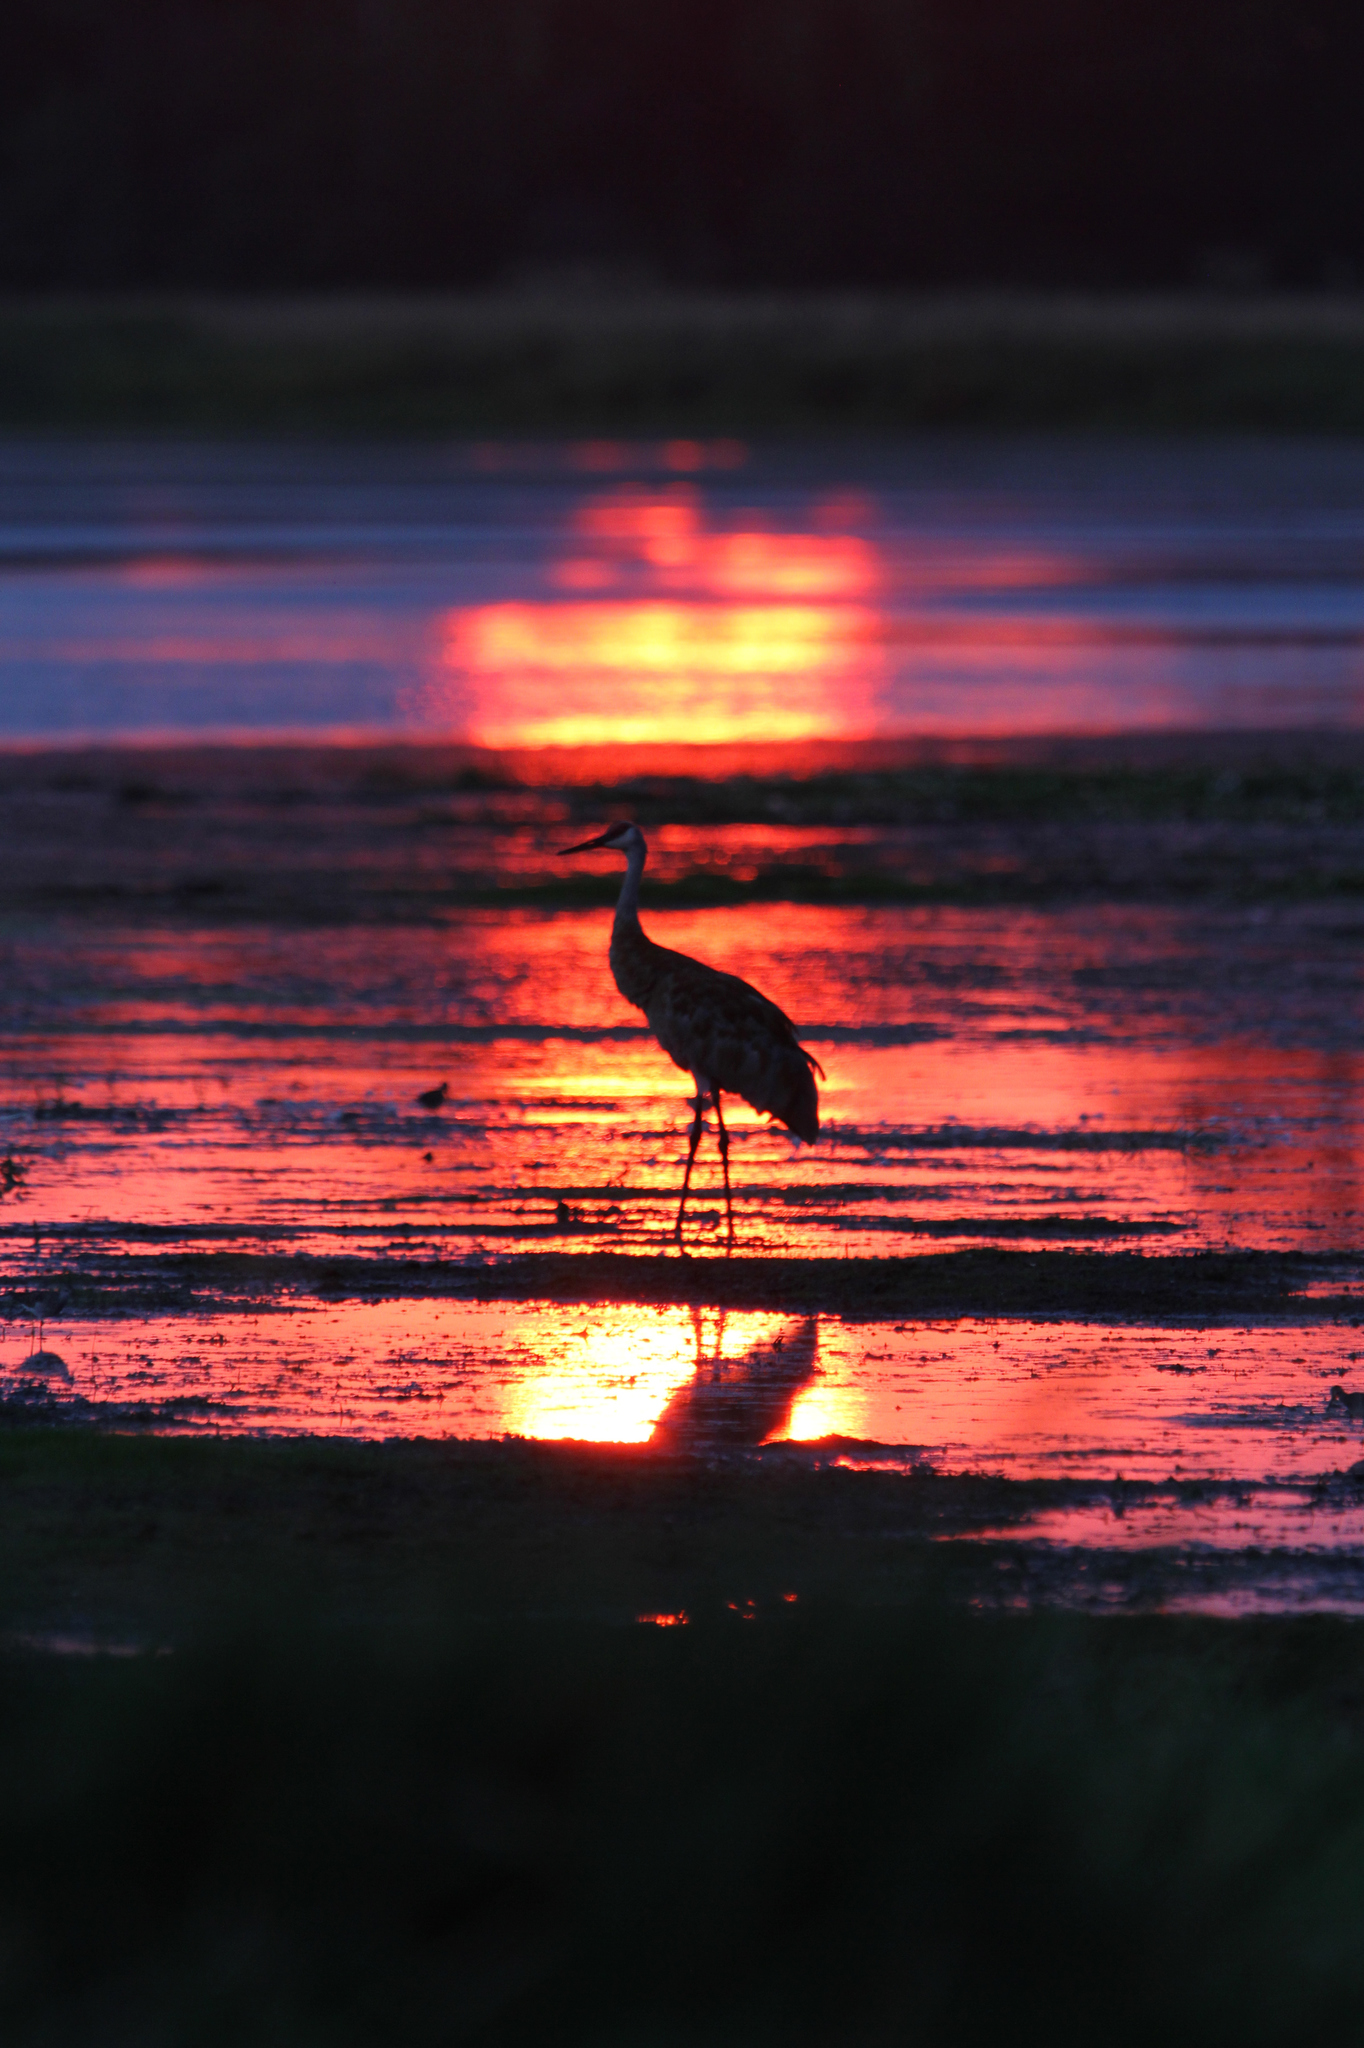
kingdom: Animalia
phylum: Chordata
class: Aves
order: Gruiformes
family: Gruidae
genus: Grus
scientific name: Grus canadensis
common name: Sandhill crane
